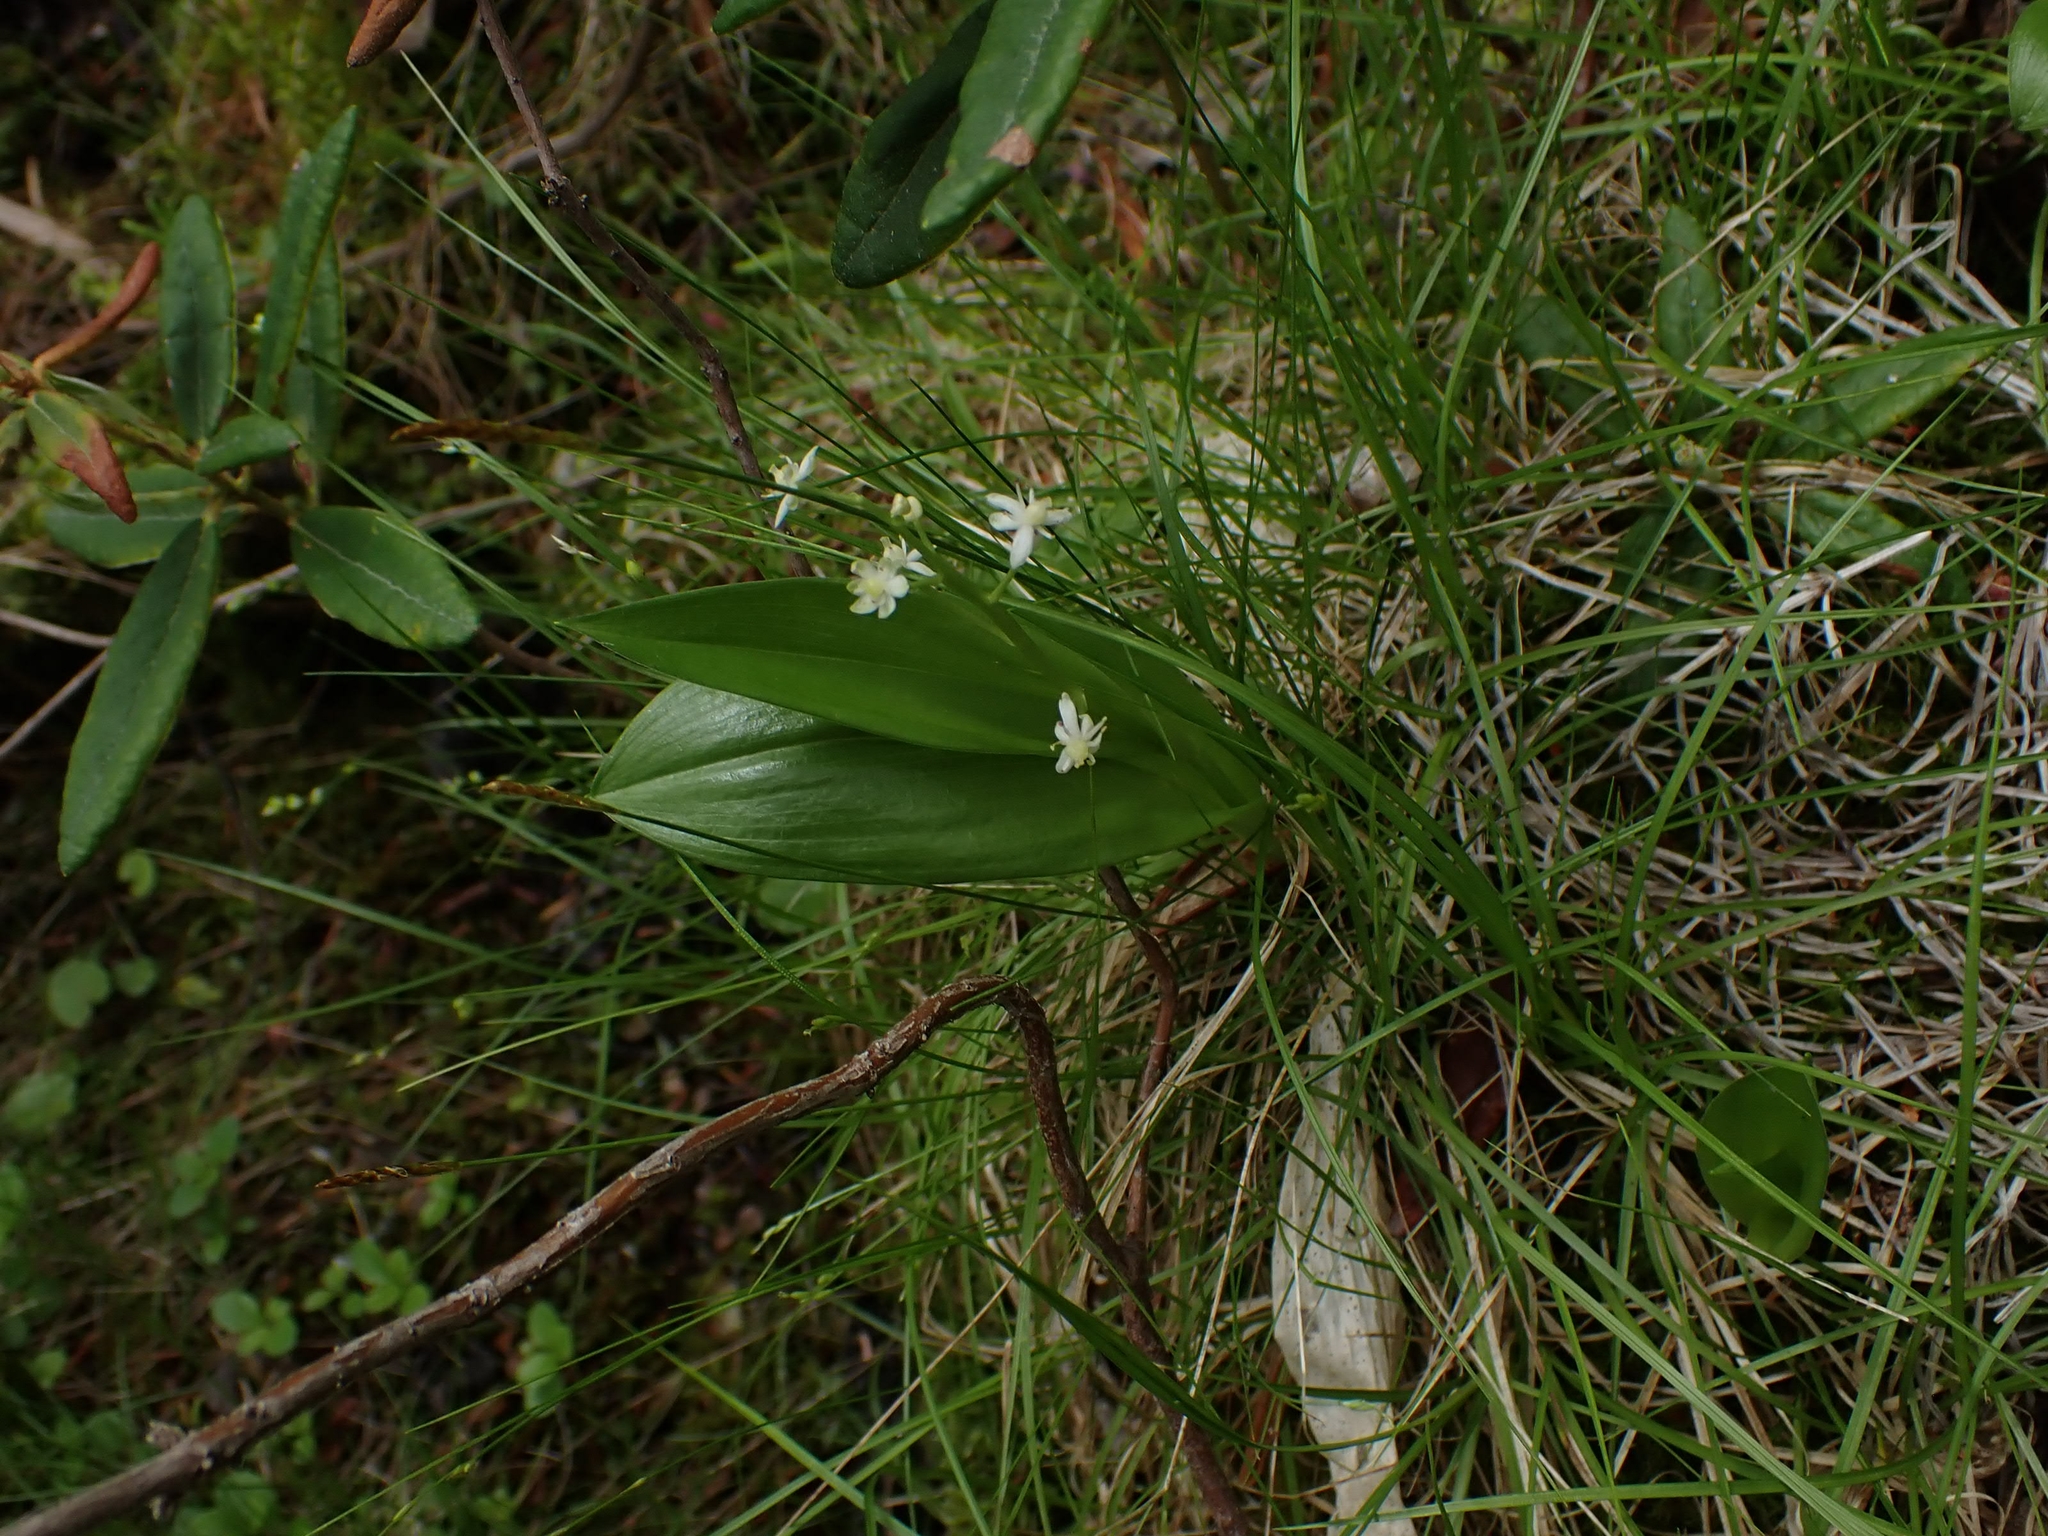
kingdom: Plantae
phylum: Tracheophyta
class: Liliopsida
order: Asparagales
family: Asparagaceae
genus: Maianthemum
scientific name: Maianthemum trifolium
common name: Swamp false solomon's seal
